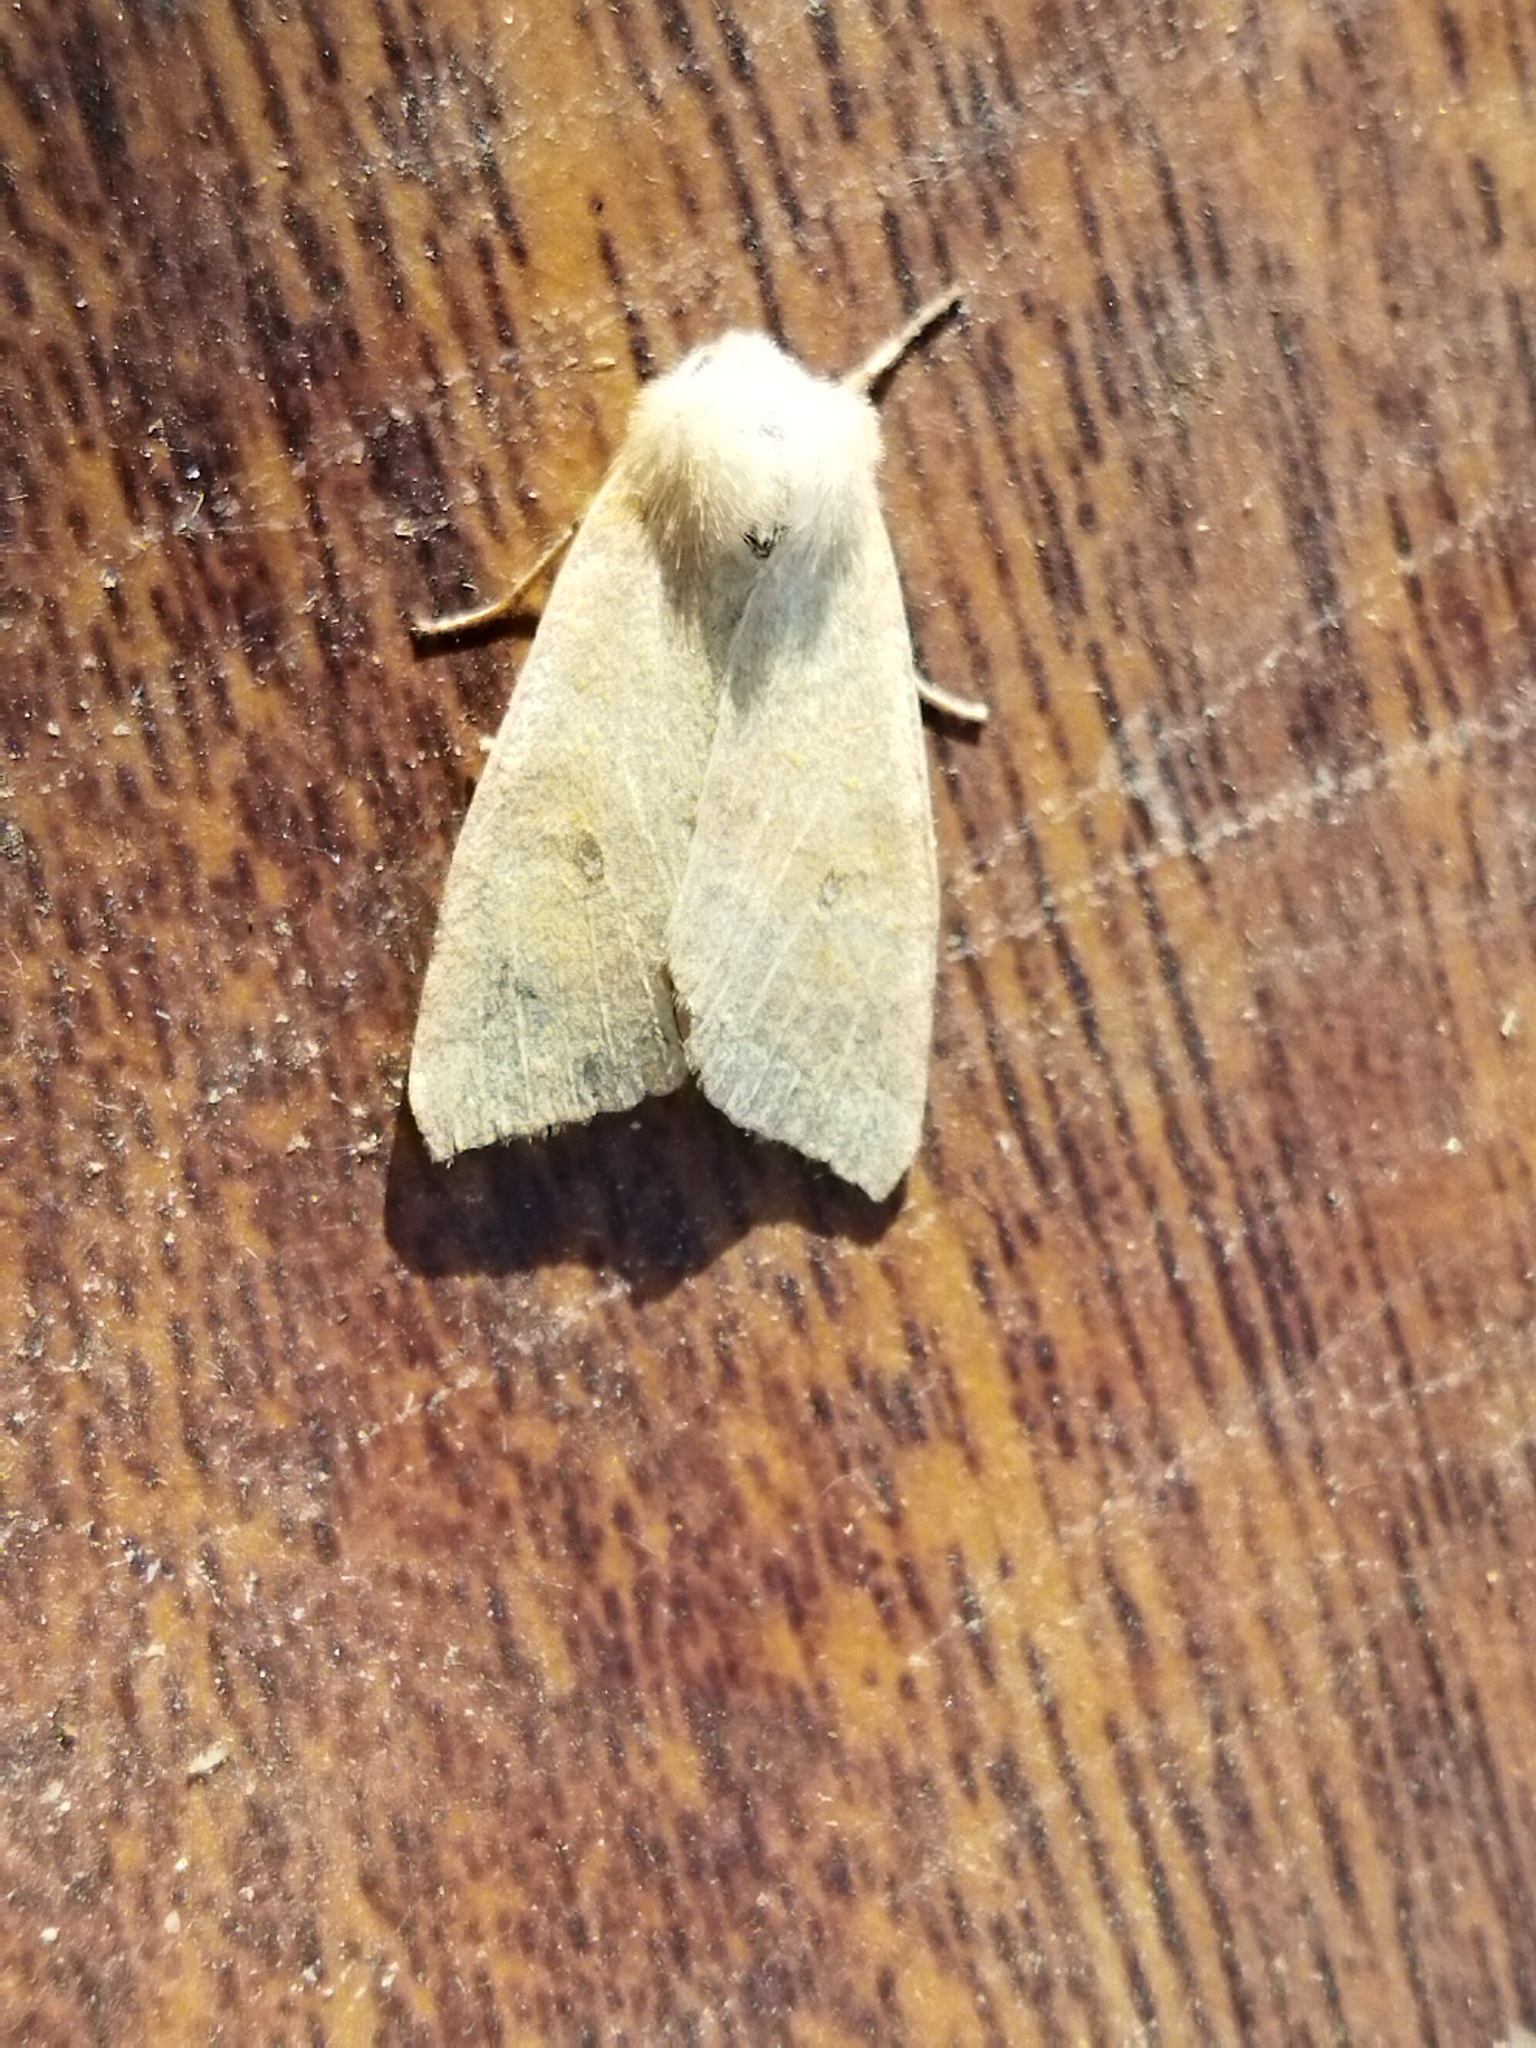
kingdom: Animalia
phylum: Arthropoda
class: Insecta
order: Lepidoptera
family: Noctuidae
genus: Xanthia
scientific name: Xanthia ocellaris
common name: Pale-lemon sallow
